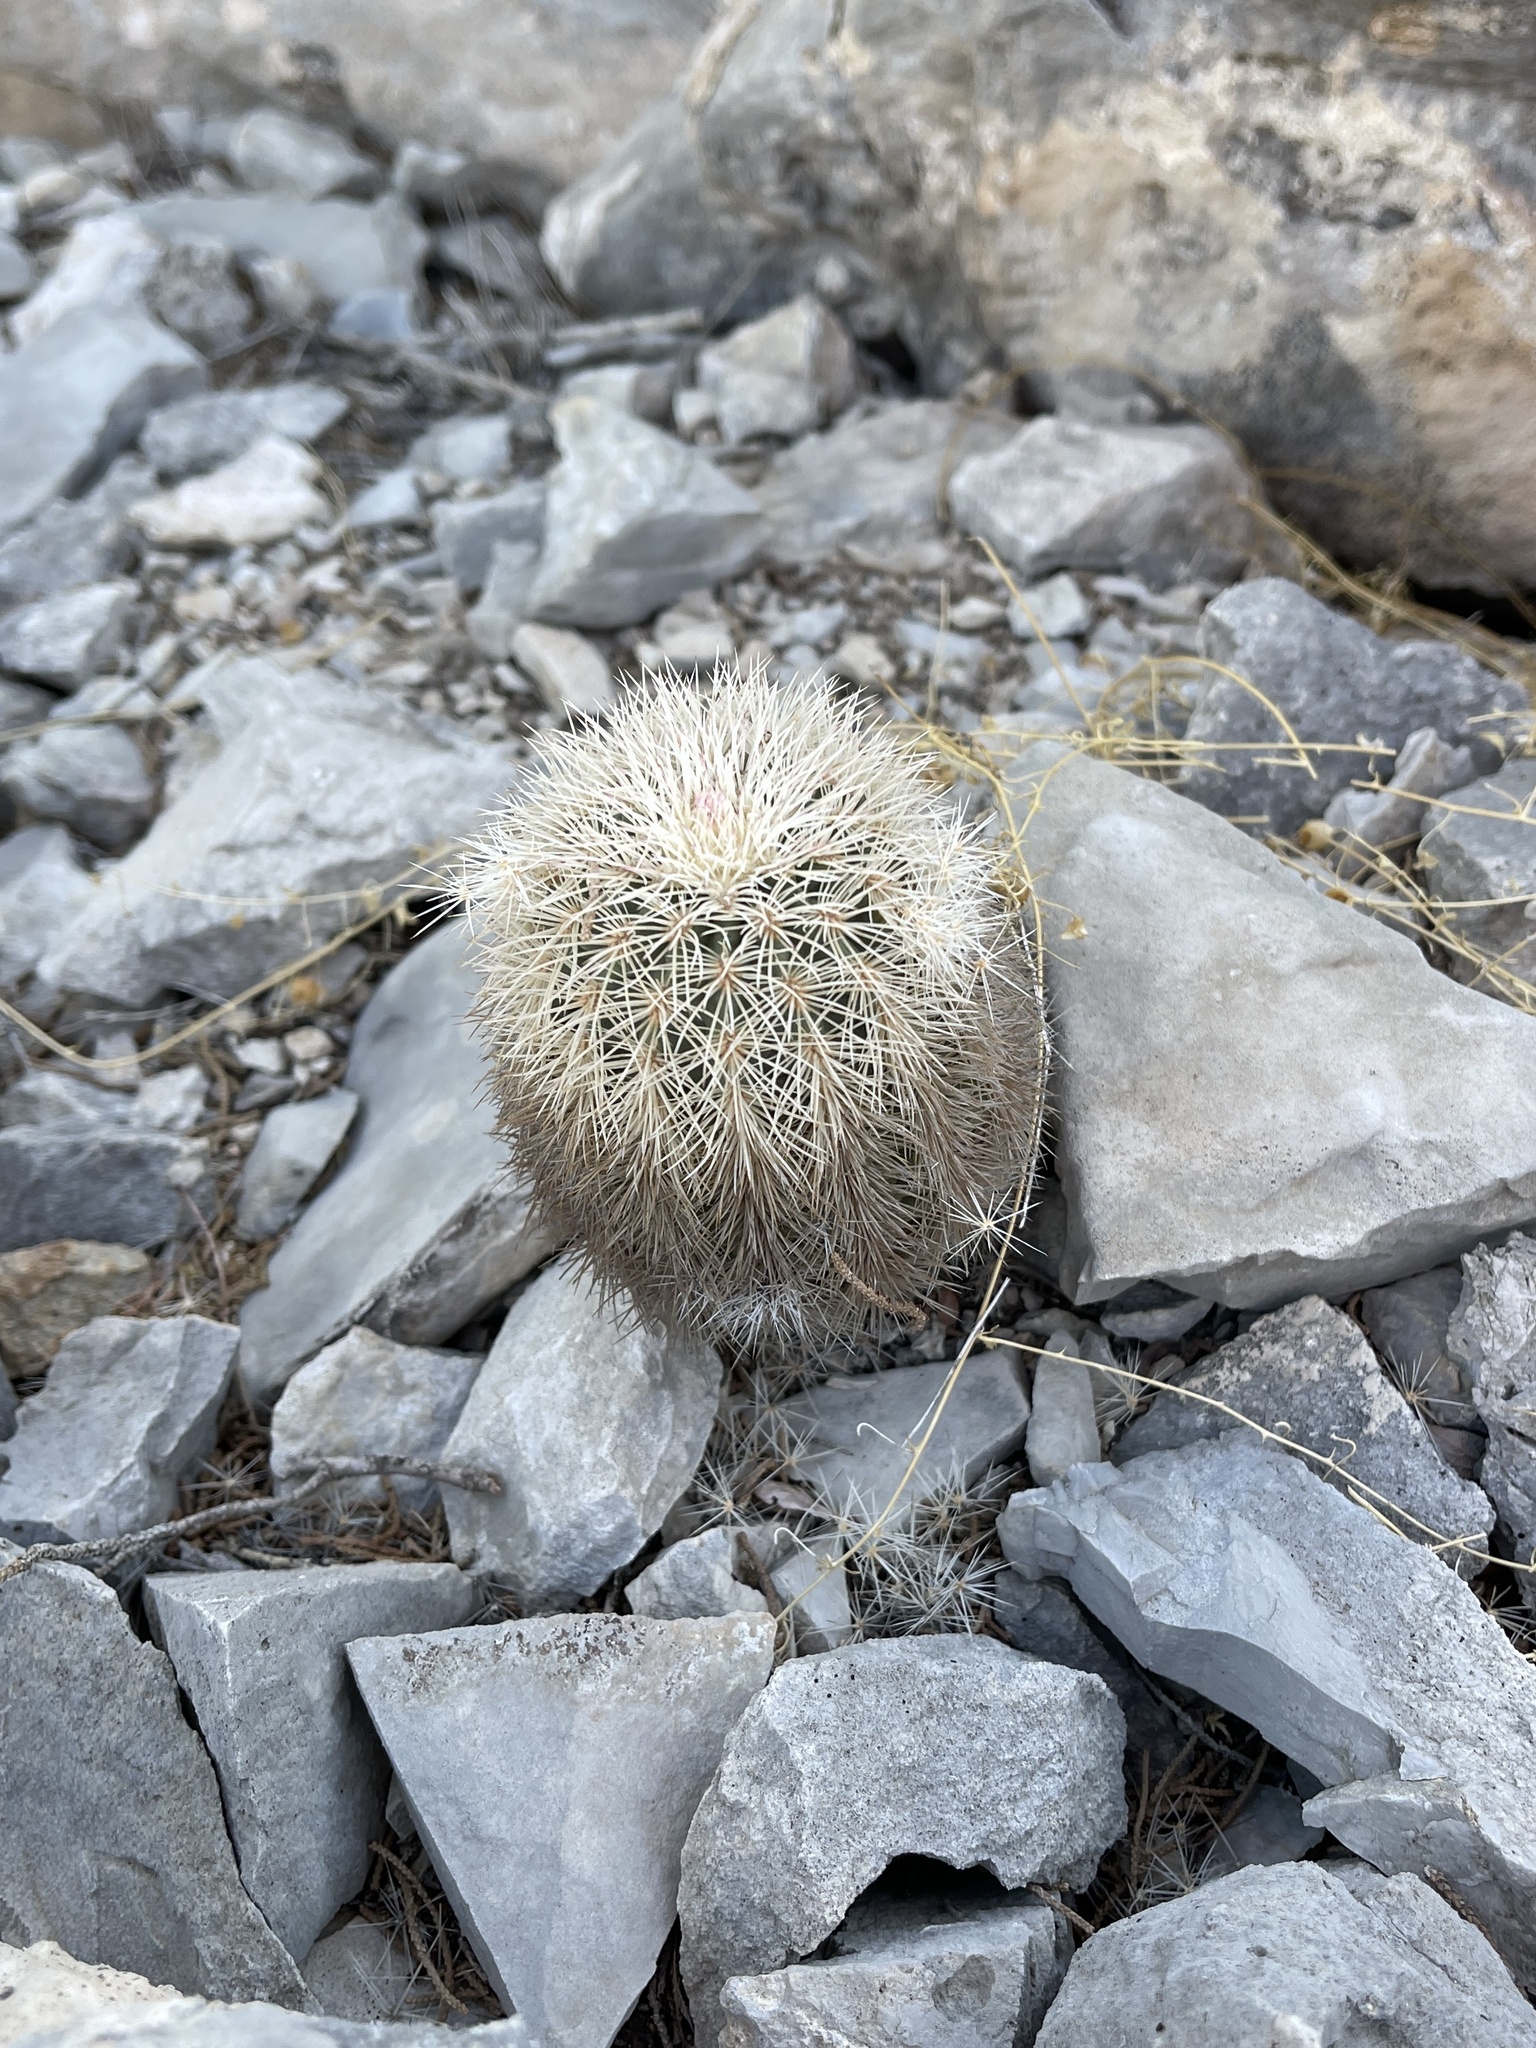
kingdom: Plantae
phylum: Tracheophyta
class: Magnoliopsida
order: Caryophyllales
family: Cactaceae
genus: Echinocereus
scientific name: Echinocereus dasyacanthus
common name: Spiny hedgehog cactus
